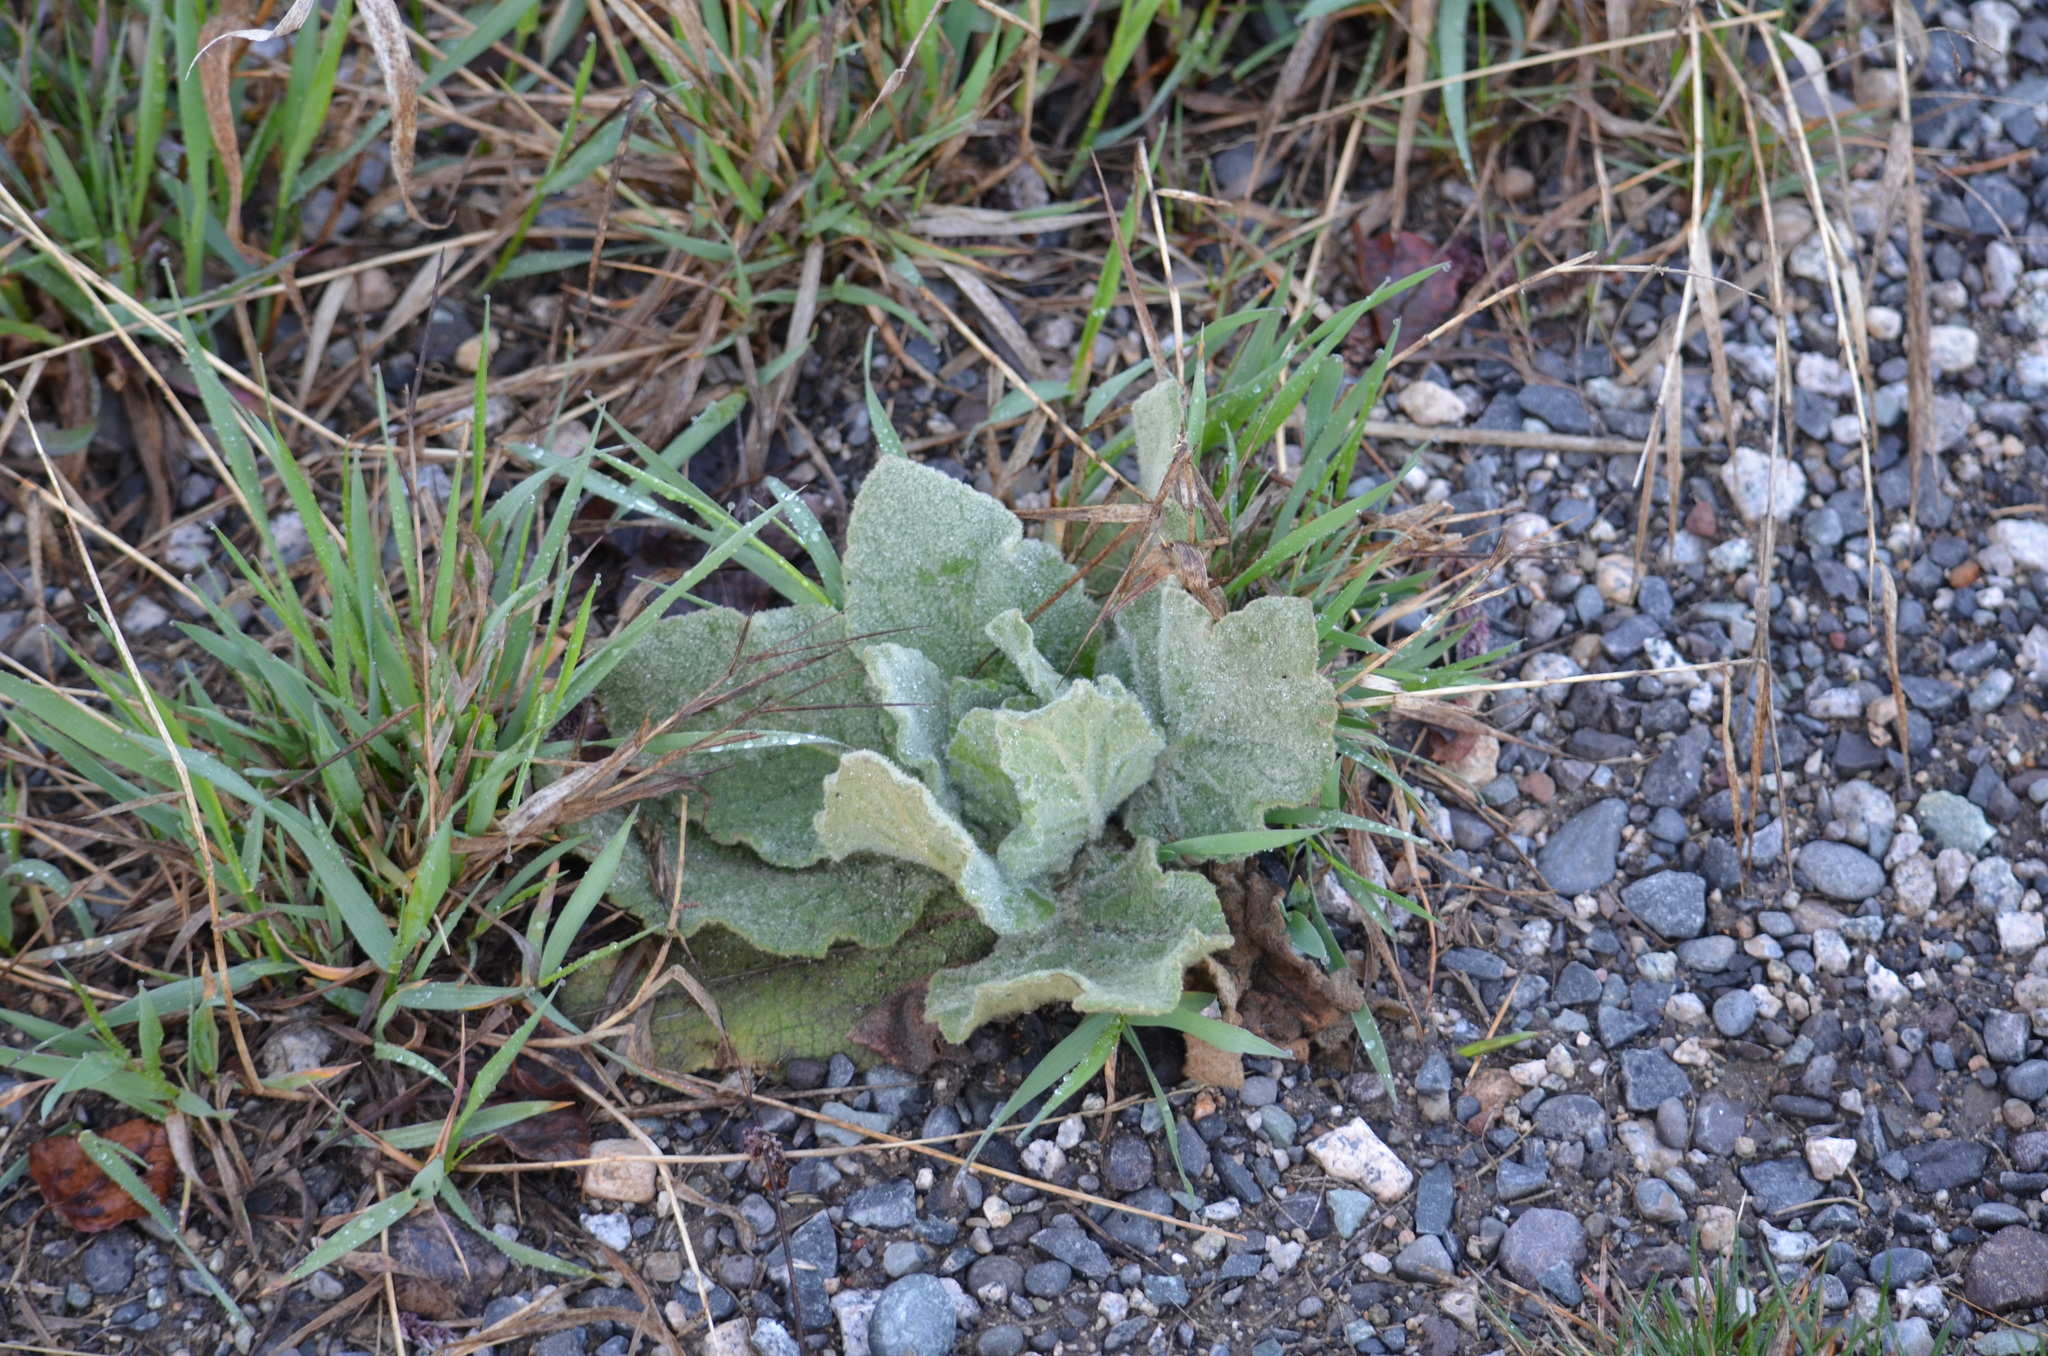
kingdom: Plantae
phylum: Tracheophyta
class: Magnoliopsida
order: Lamiales
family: Scrophulariaceae
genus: Verbascum
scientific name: Verbascum thapsus
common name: Common mullein
